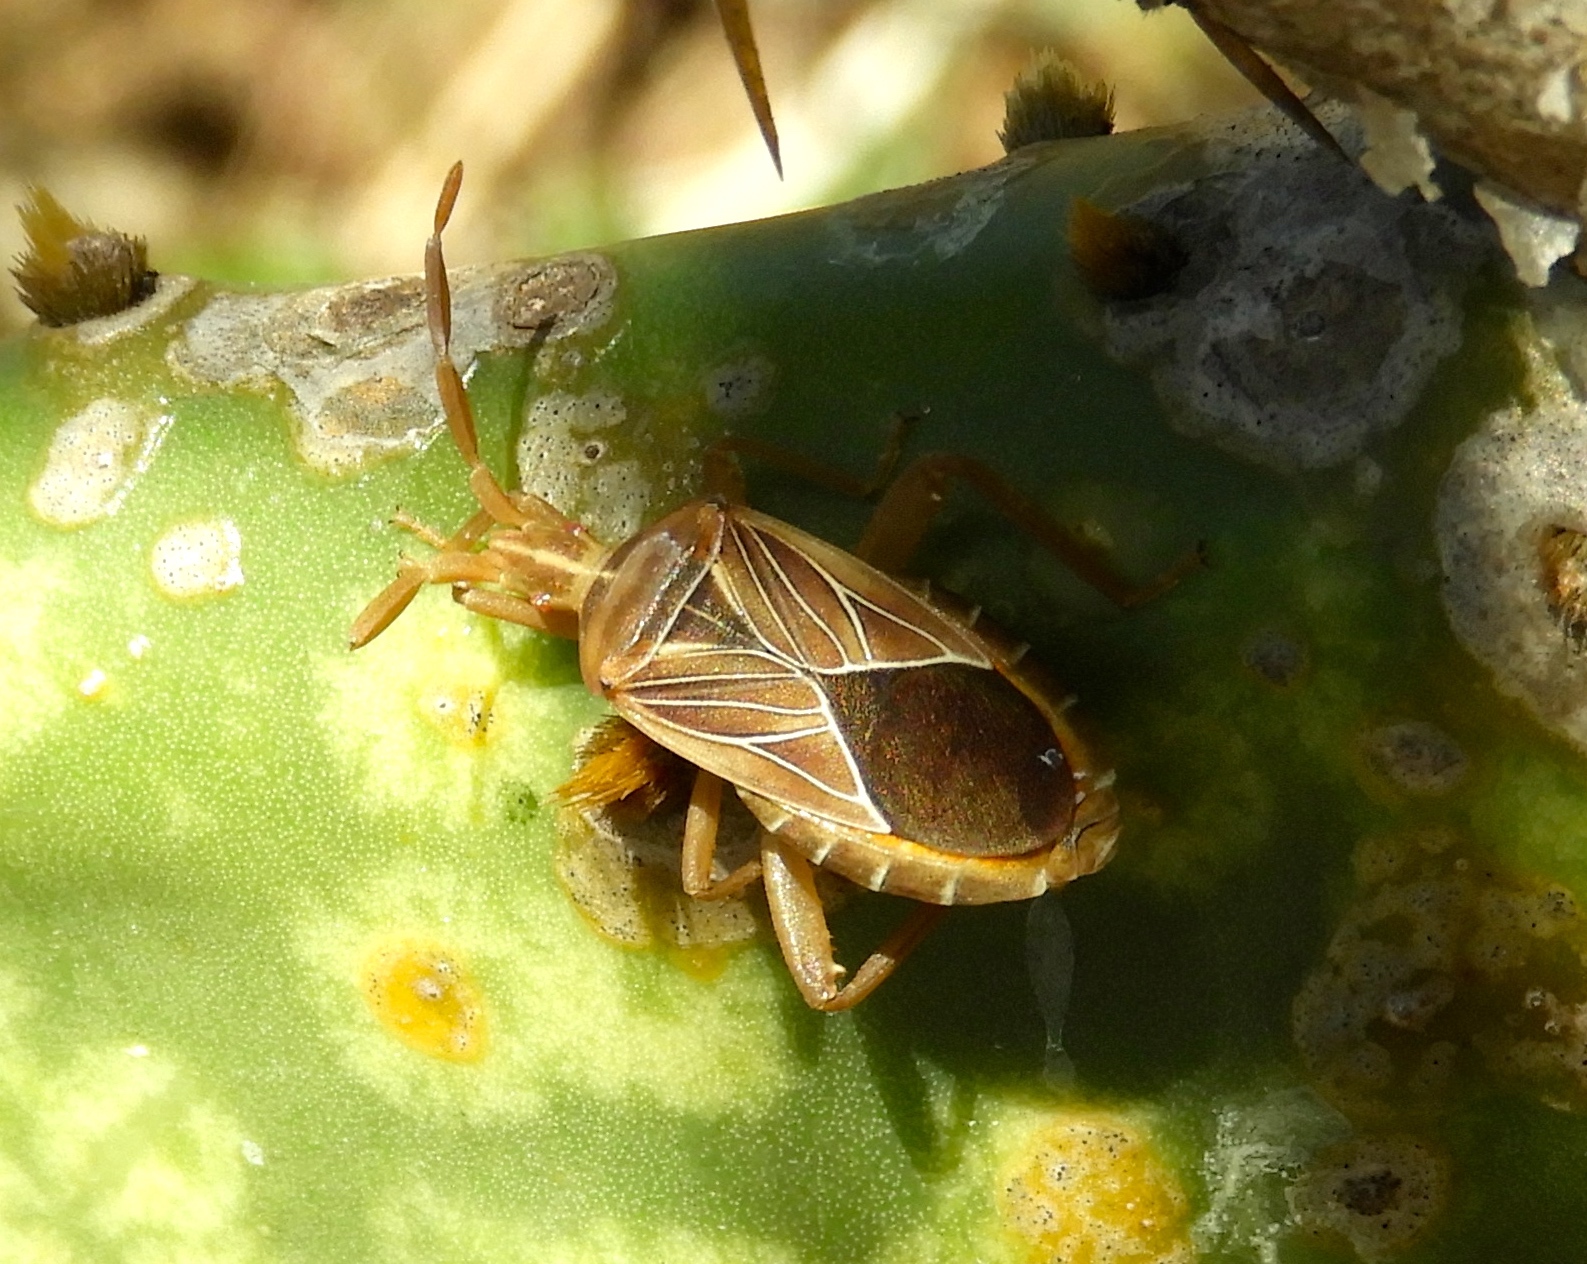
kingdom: Animalia
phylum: Arthropoda
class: Insecta
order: Hemiptera
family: Coreidae
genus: Chelinidea
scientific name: Chelinidea vittiger
